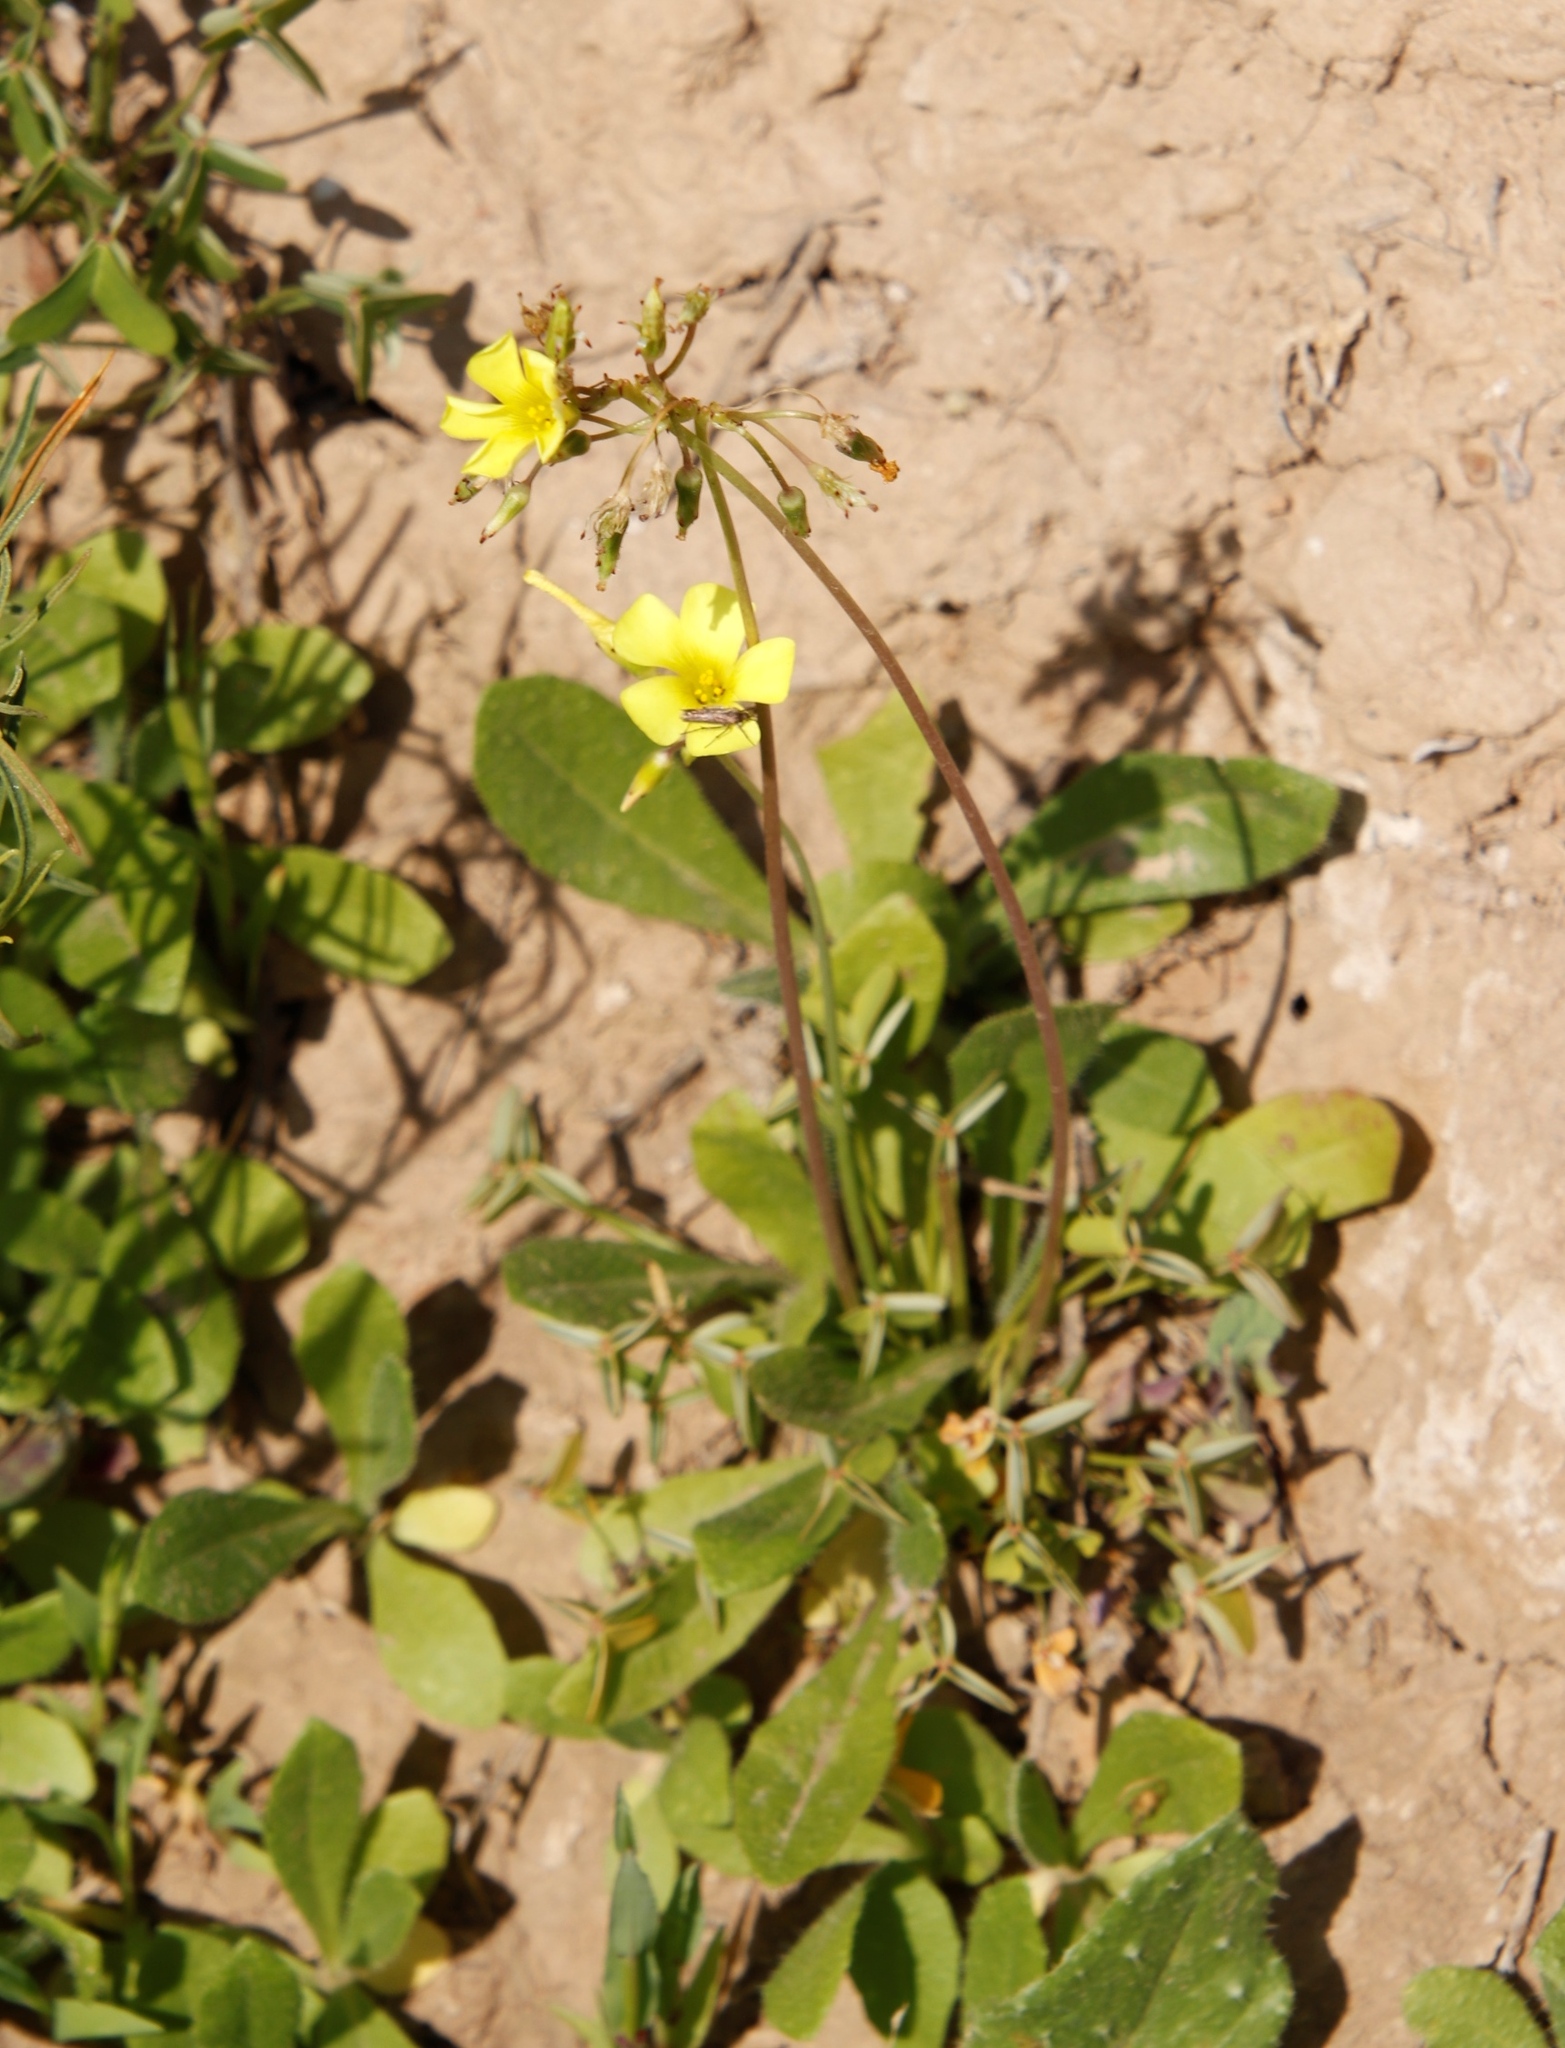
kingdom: Plantae
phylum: Tracheophyta
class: Magnoliopsida
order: Oxalidales
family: Oxalidaceae
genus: Oxalis
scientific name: Oxalis pes-caprae
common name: Bermuda-buttercup
